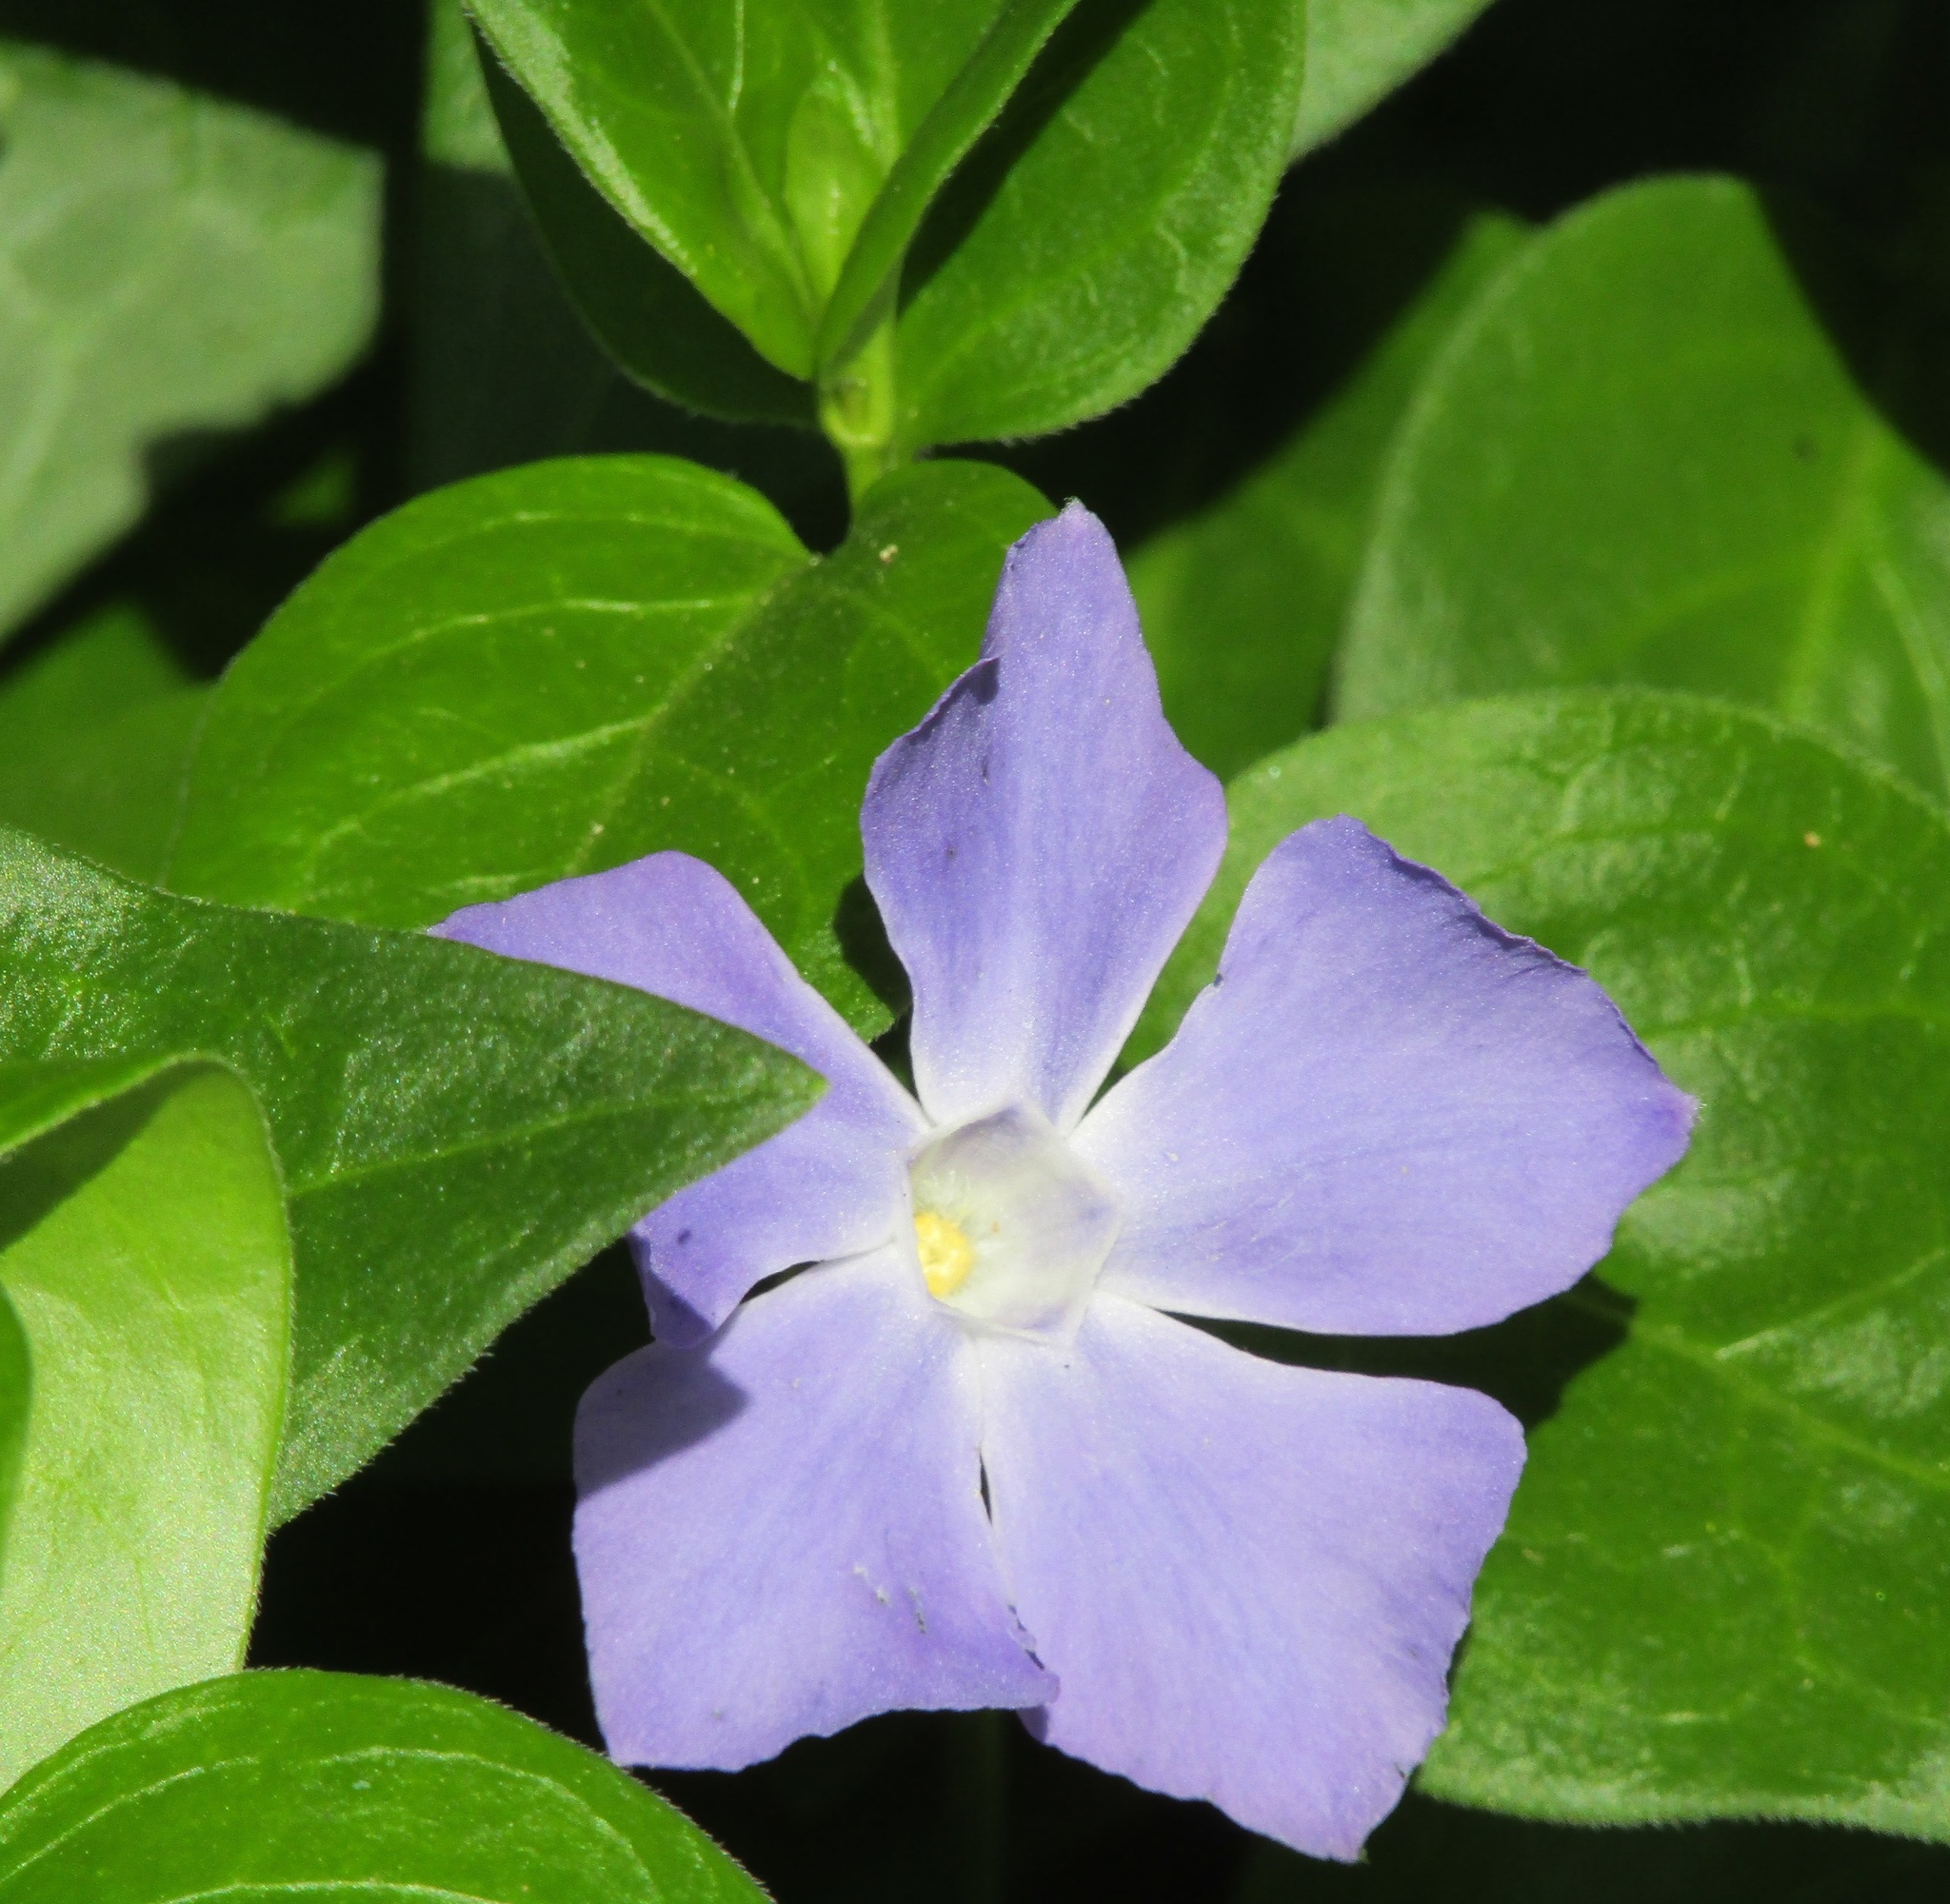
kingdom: Plantae
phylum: Tracheophyta
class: Magnoliopsida
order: Gentianales
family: Apocynaceae
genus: Vinca
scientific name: Vinca major
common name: Greater periwinkle
